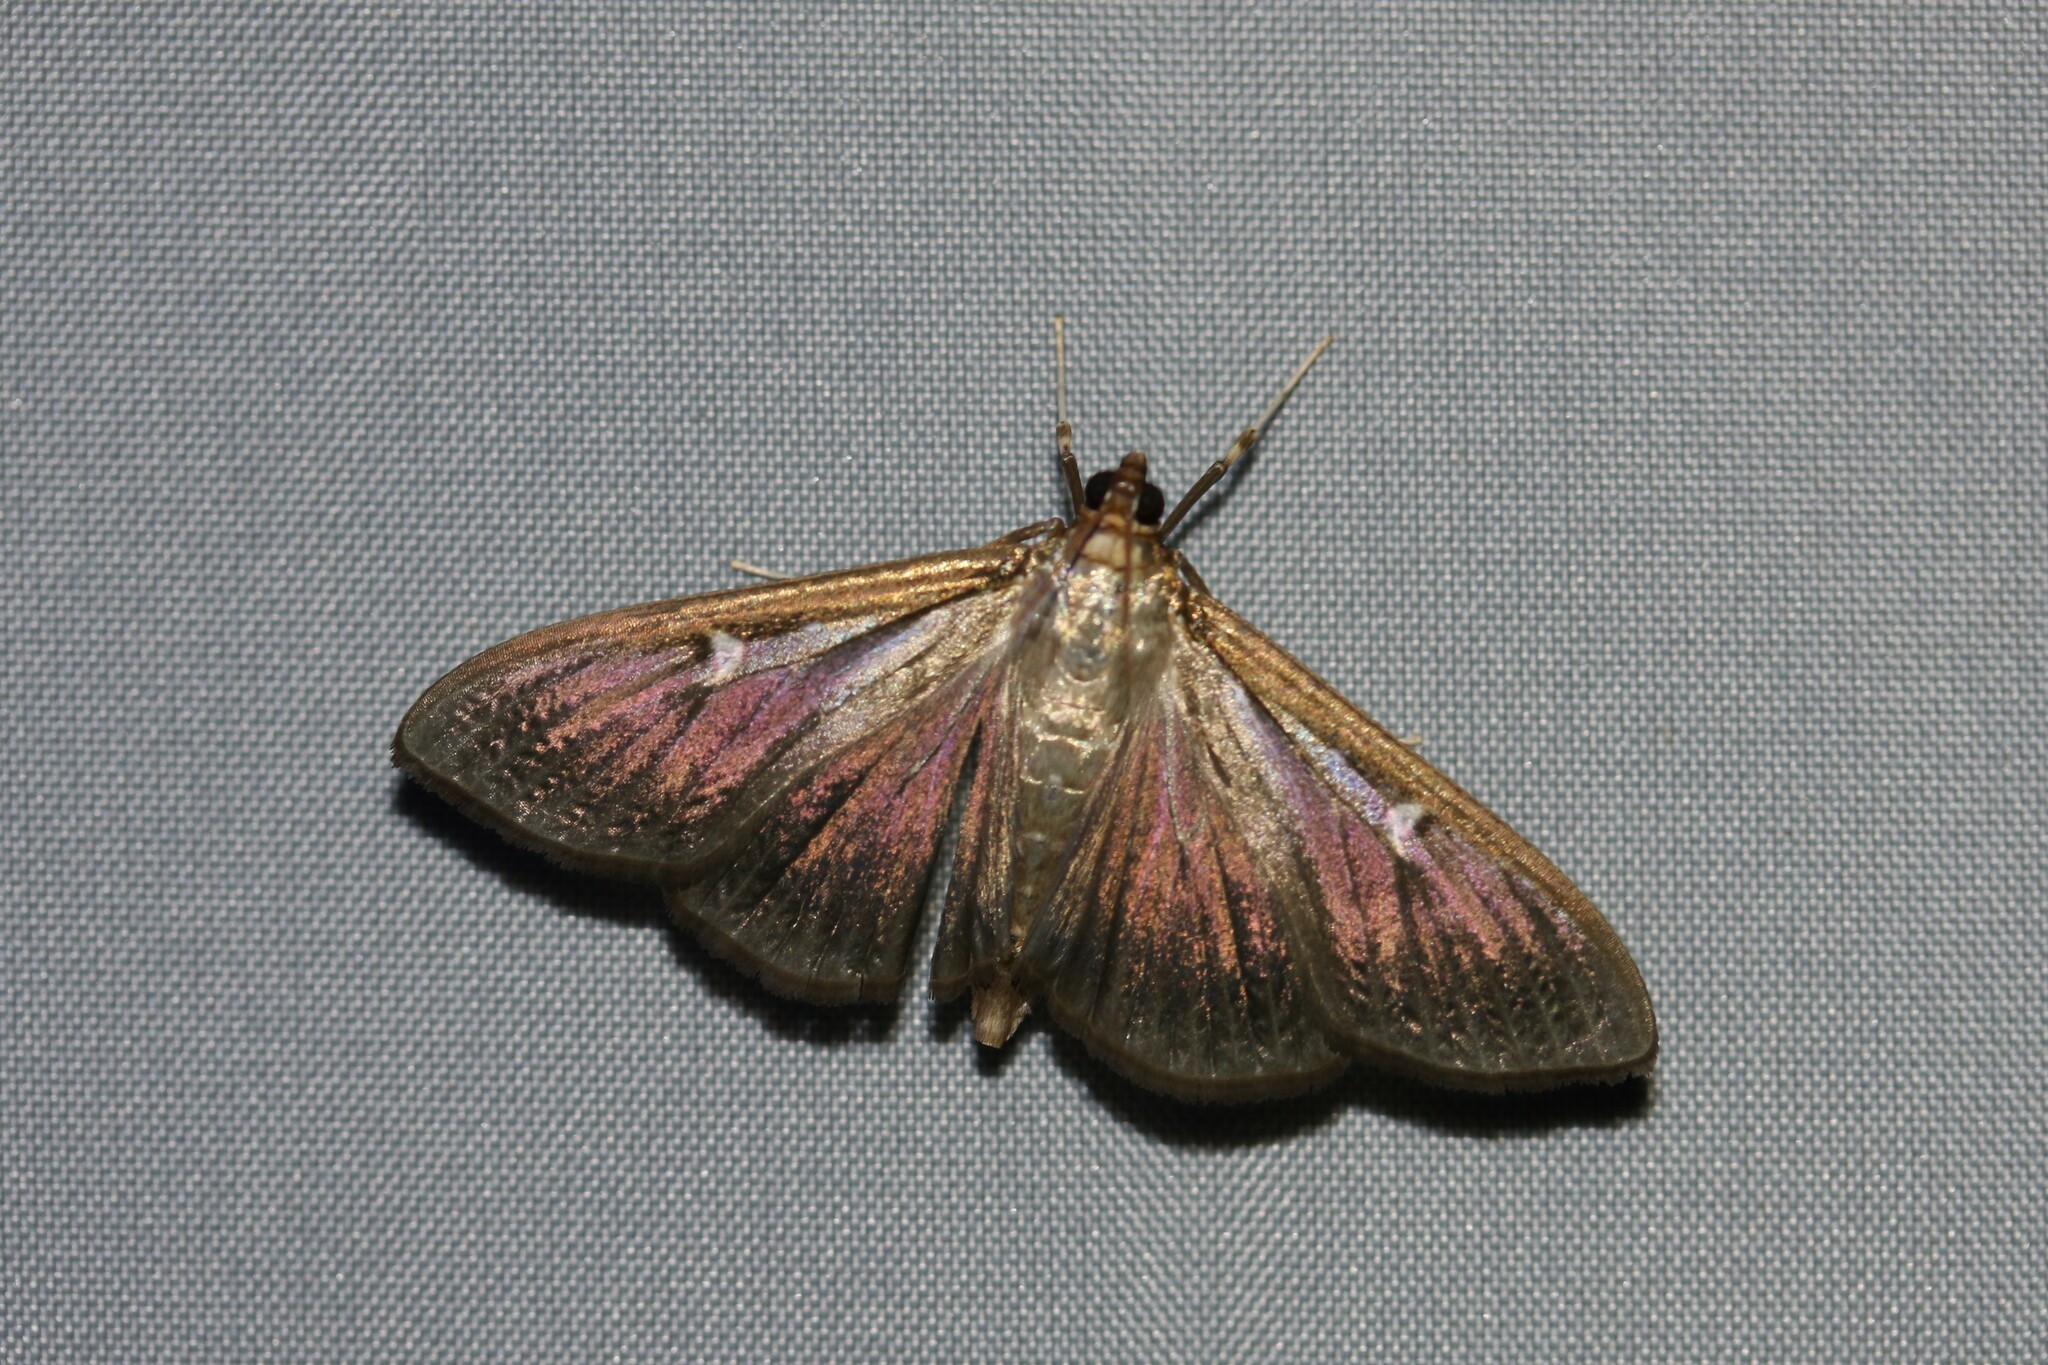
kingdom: Animalia
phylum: Arthropoda
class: Insecta
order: Lepidoptera
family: Crambidae
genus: Cydalima
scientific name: Cydalima perspectalis
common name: Box tree moth
